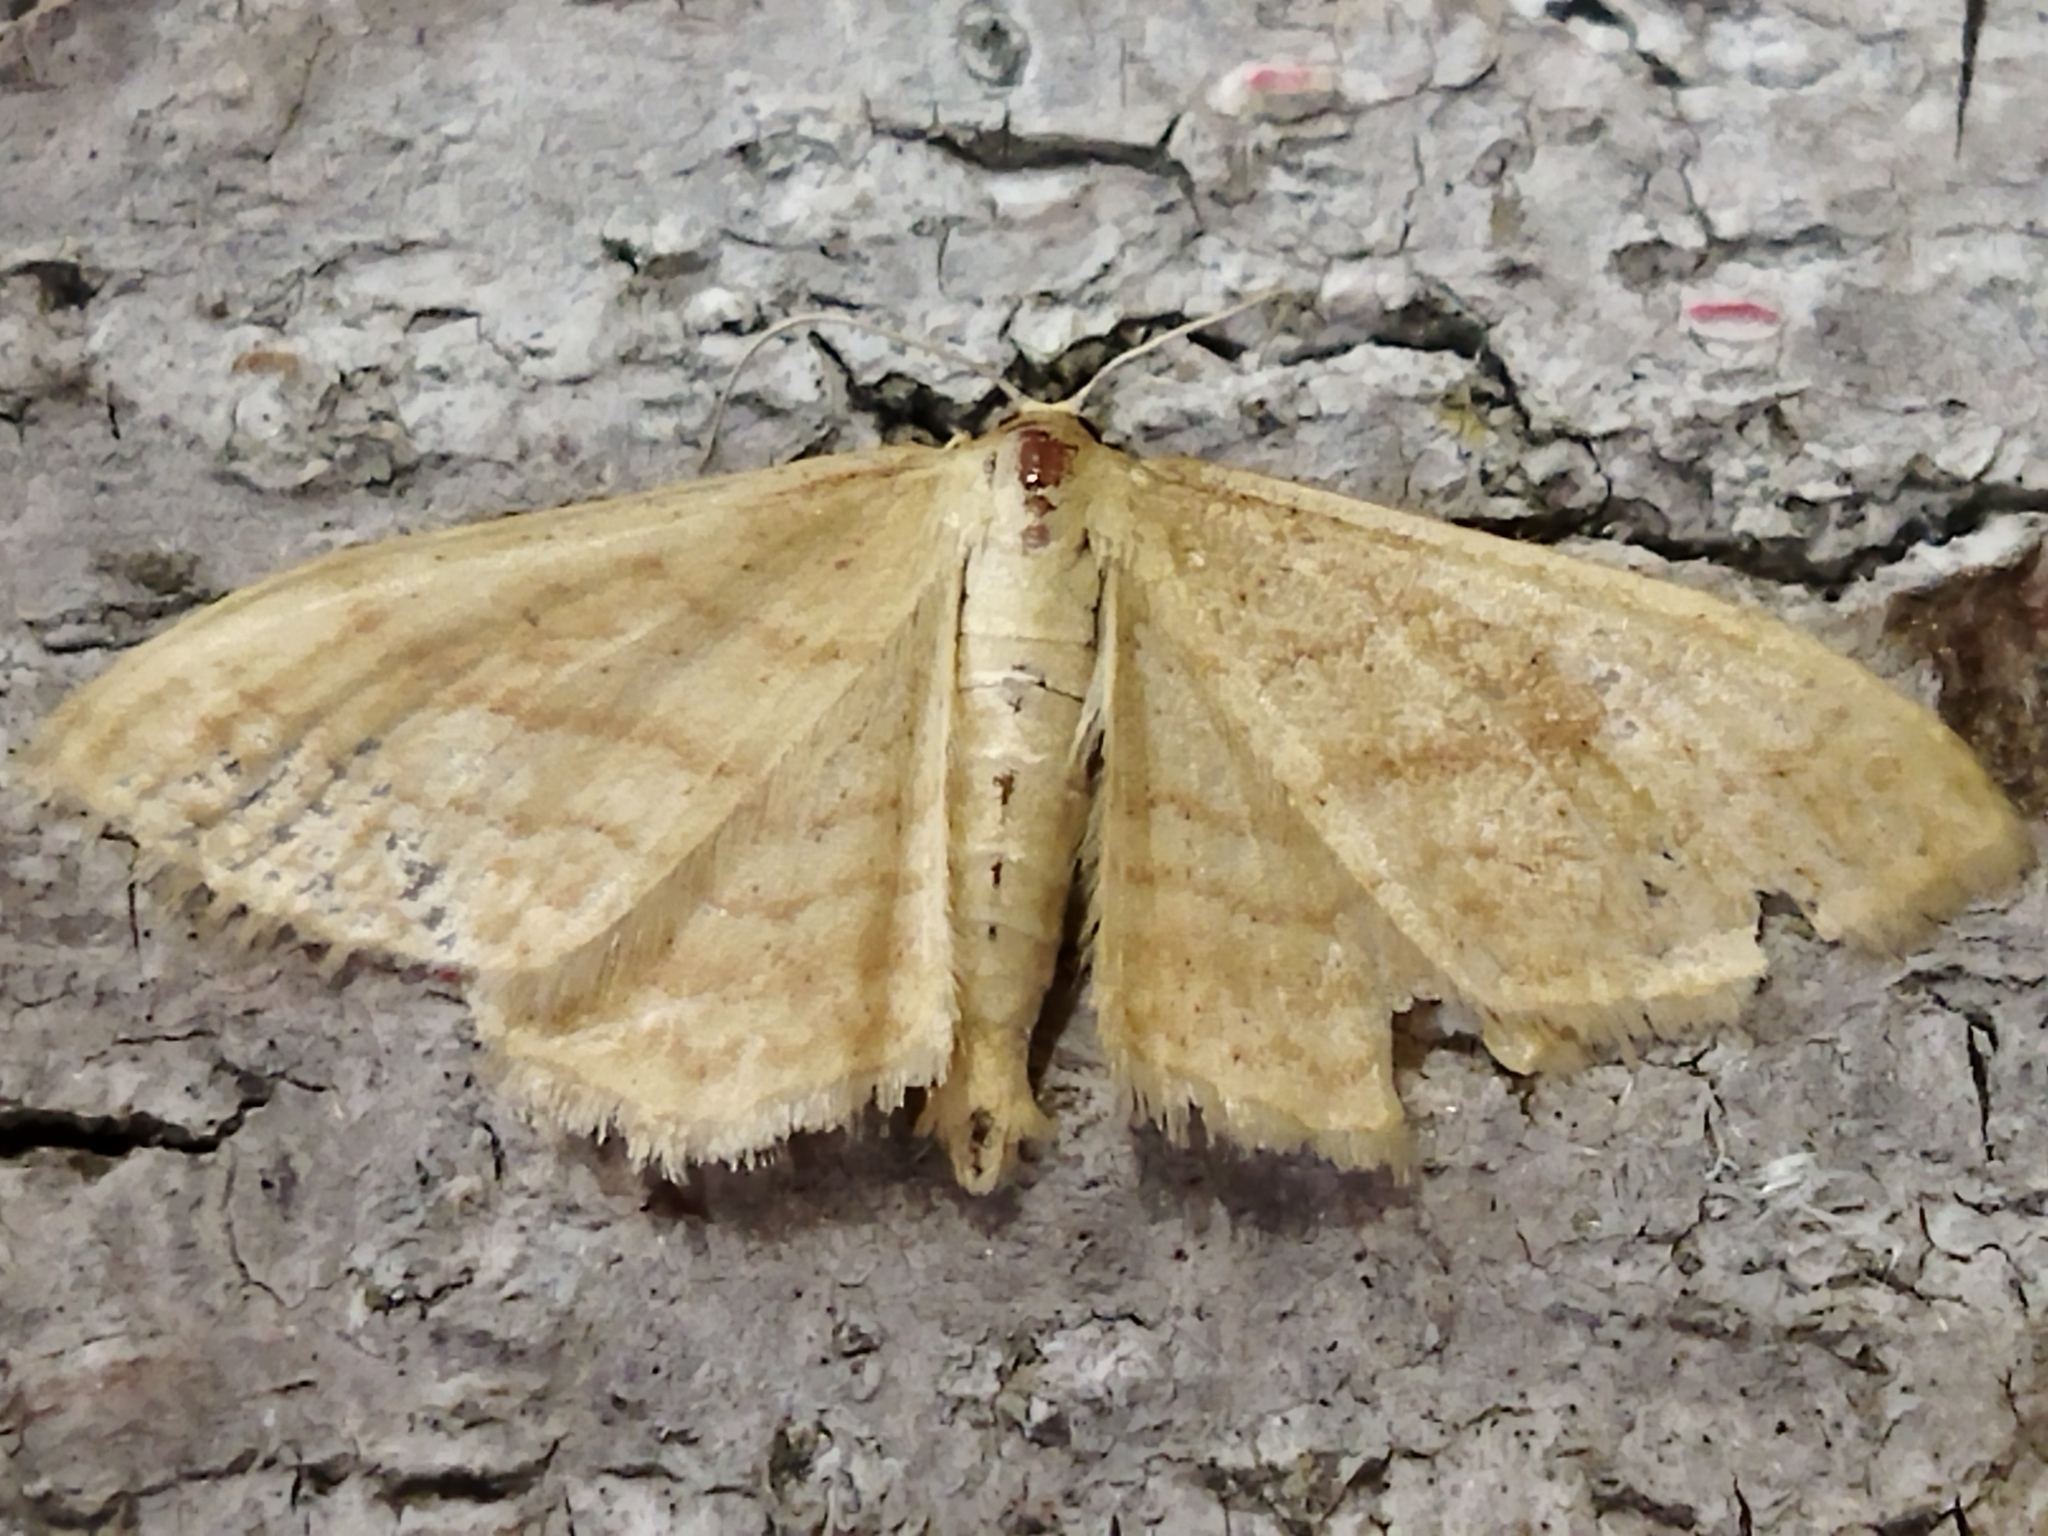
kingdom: Animalia
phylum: Arthropoda
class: Insecta
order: Lepidoptera
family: Geometridae
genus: Idaea
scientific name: Idaea rufaria
